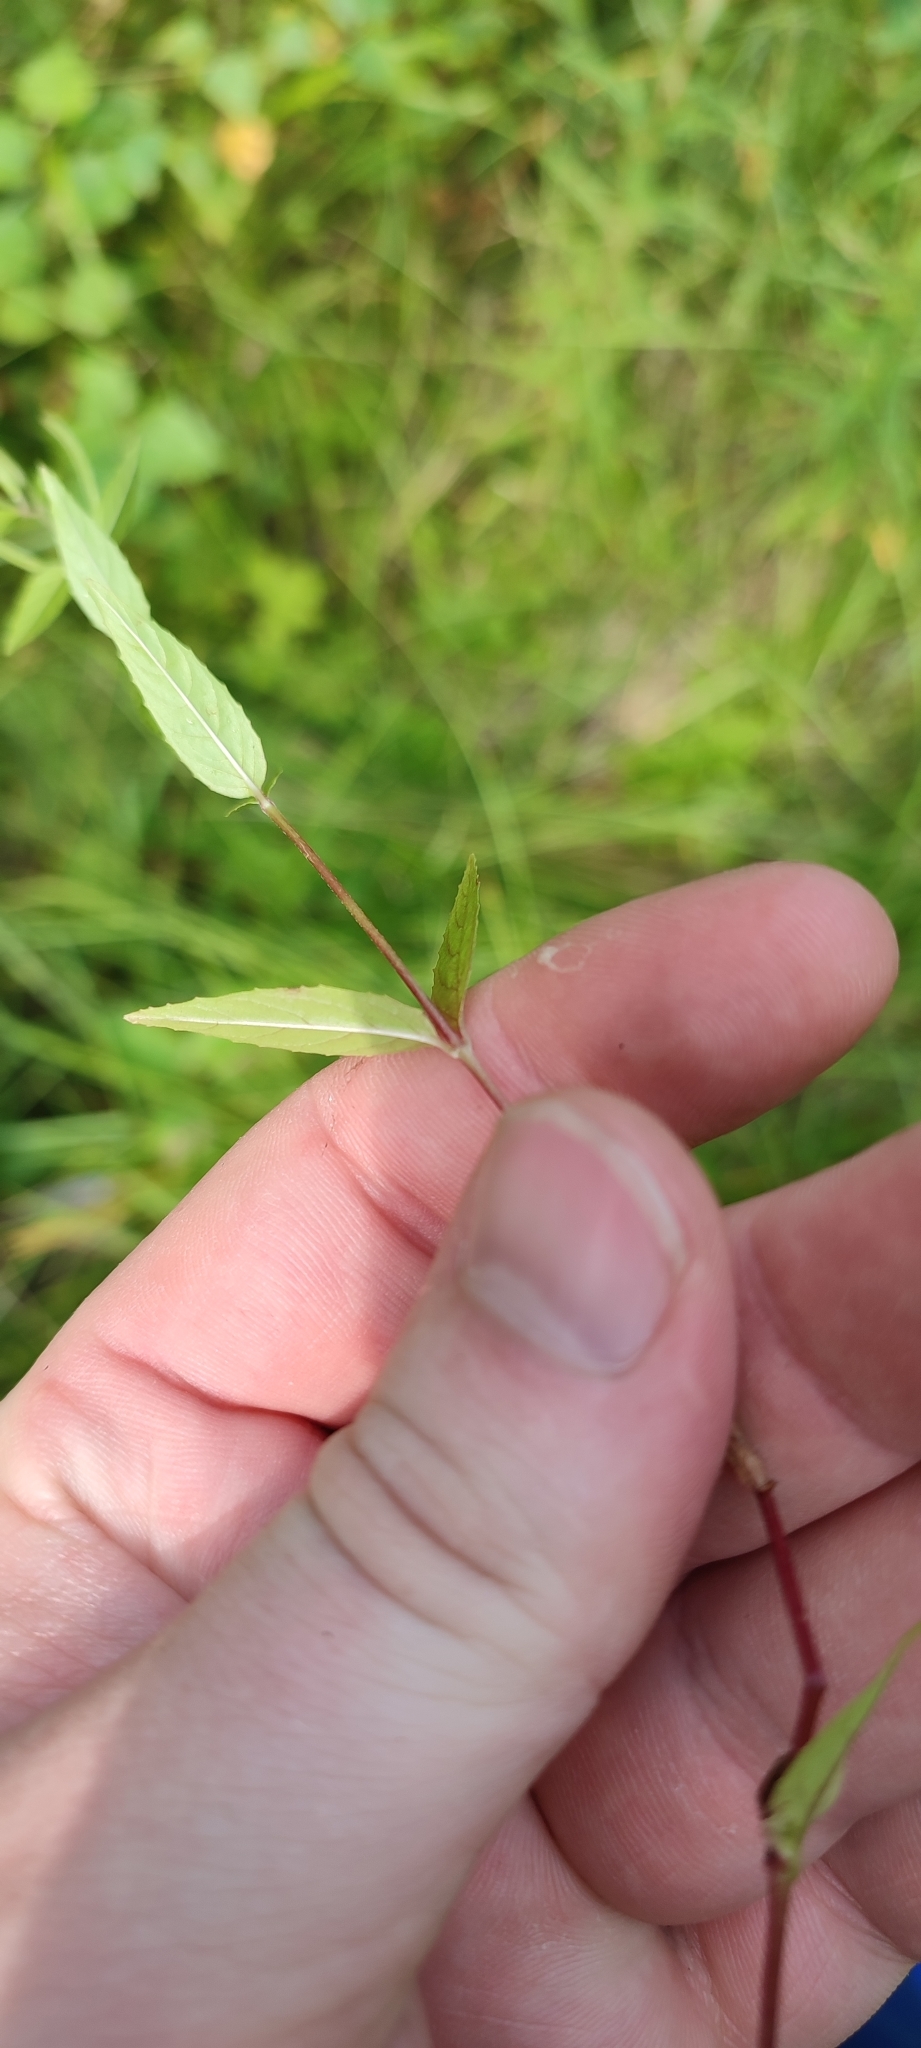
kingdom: Plantae
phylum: Tracheophyta
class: Magnoliopsida
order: Myrtales
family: Onagraceae
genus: Epilobium
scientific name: Epilobium pseudorubescens
